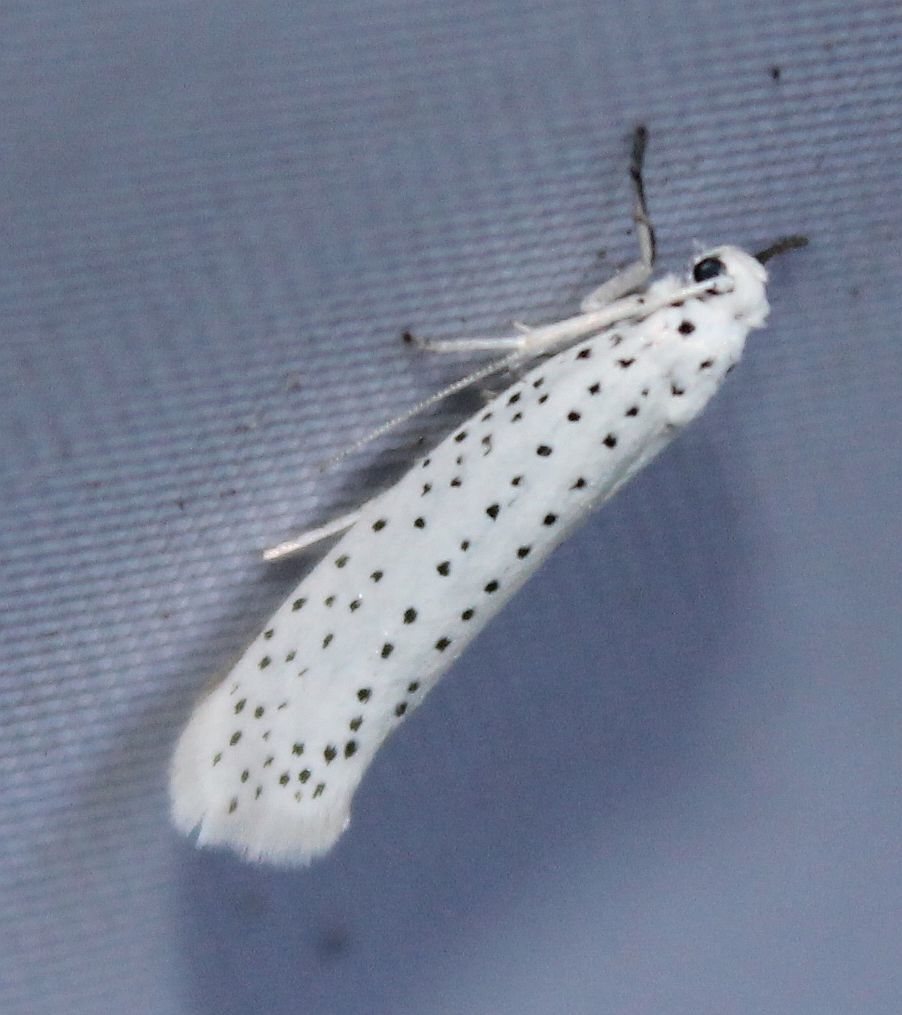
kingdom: Animalia
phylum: Arthropoda
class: Insecta
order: Lepidoptera
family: Yponomeutidae
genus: Yponomeuta
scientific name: Yponomeuta evonymella
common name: Bird-cherry ermine
